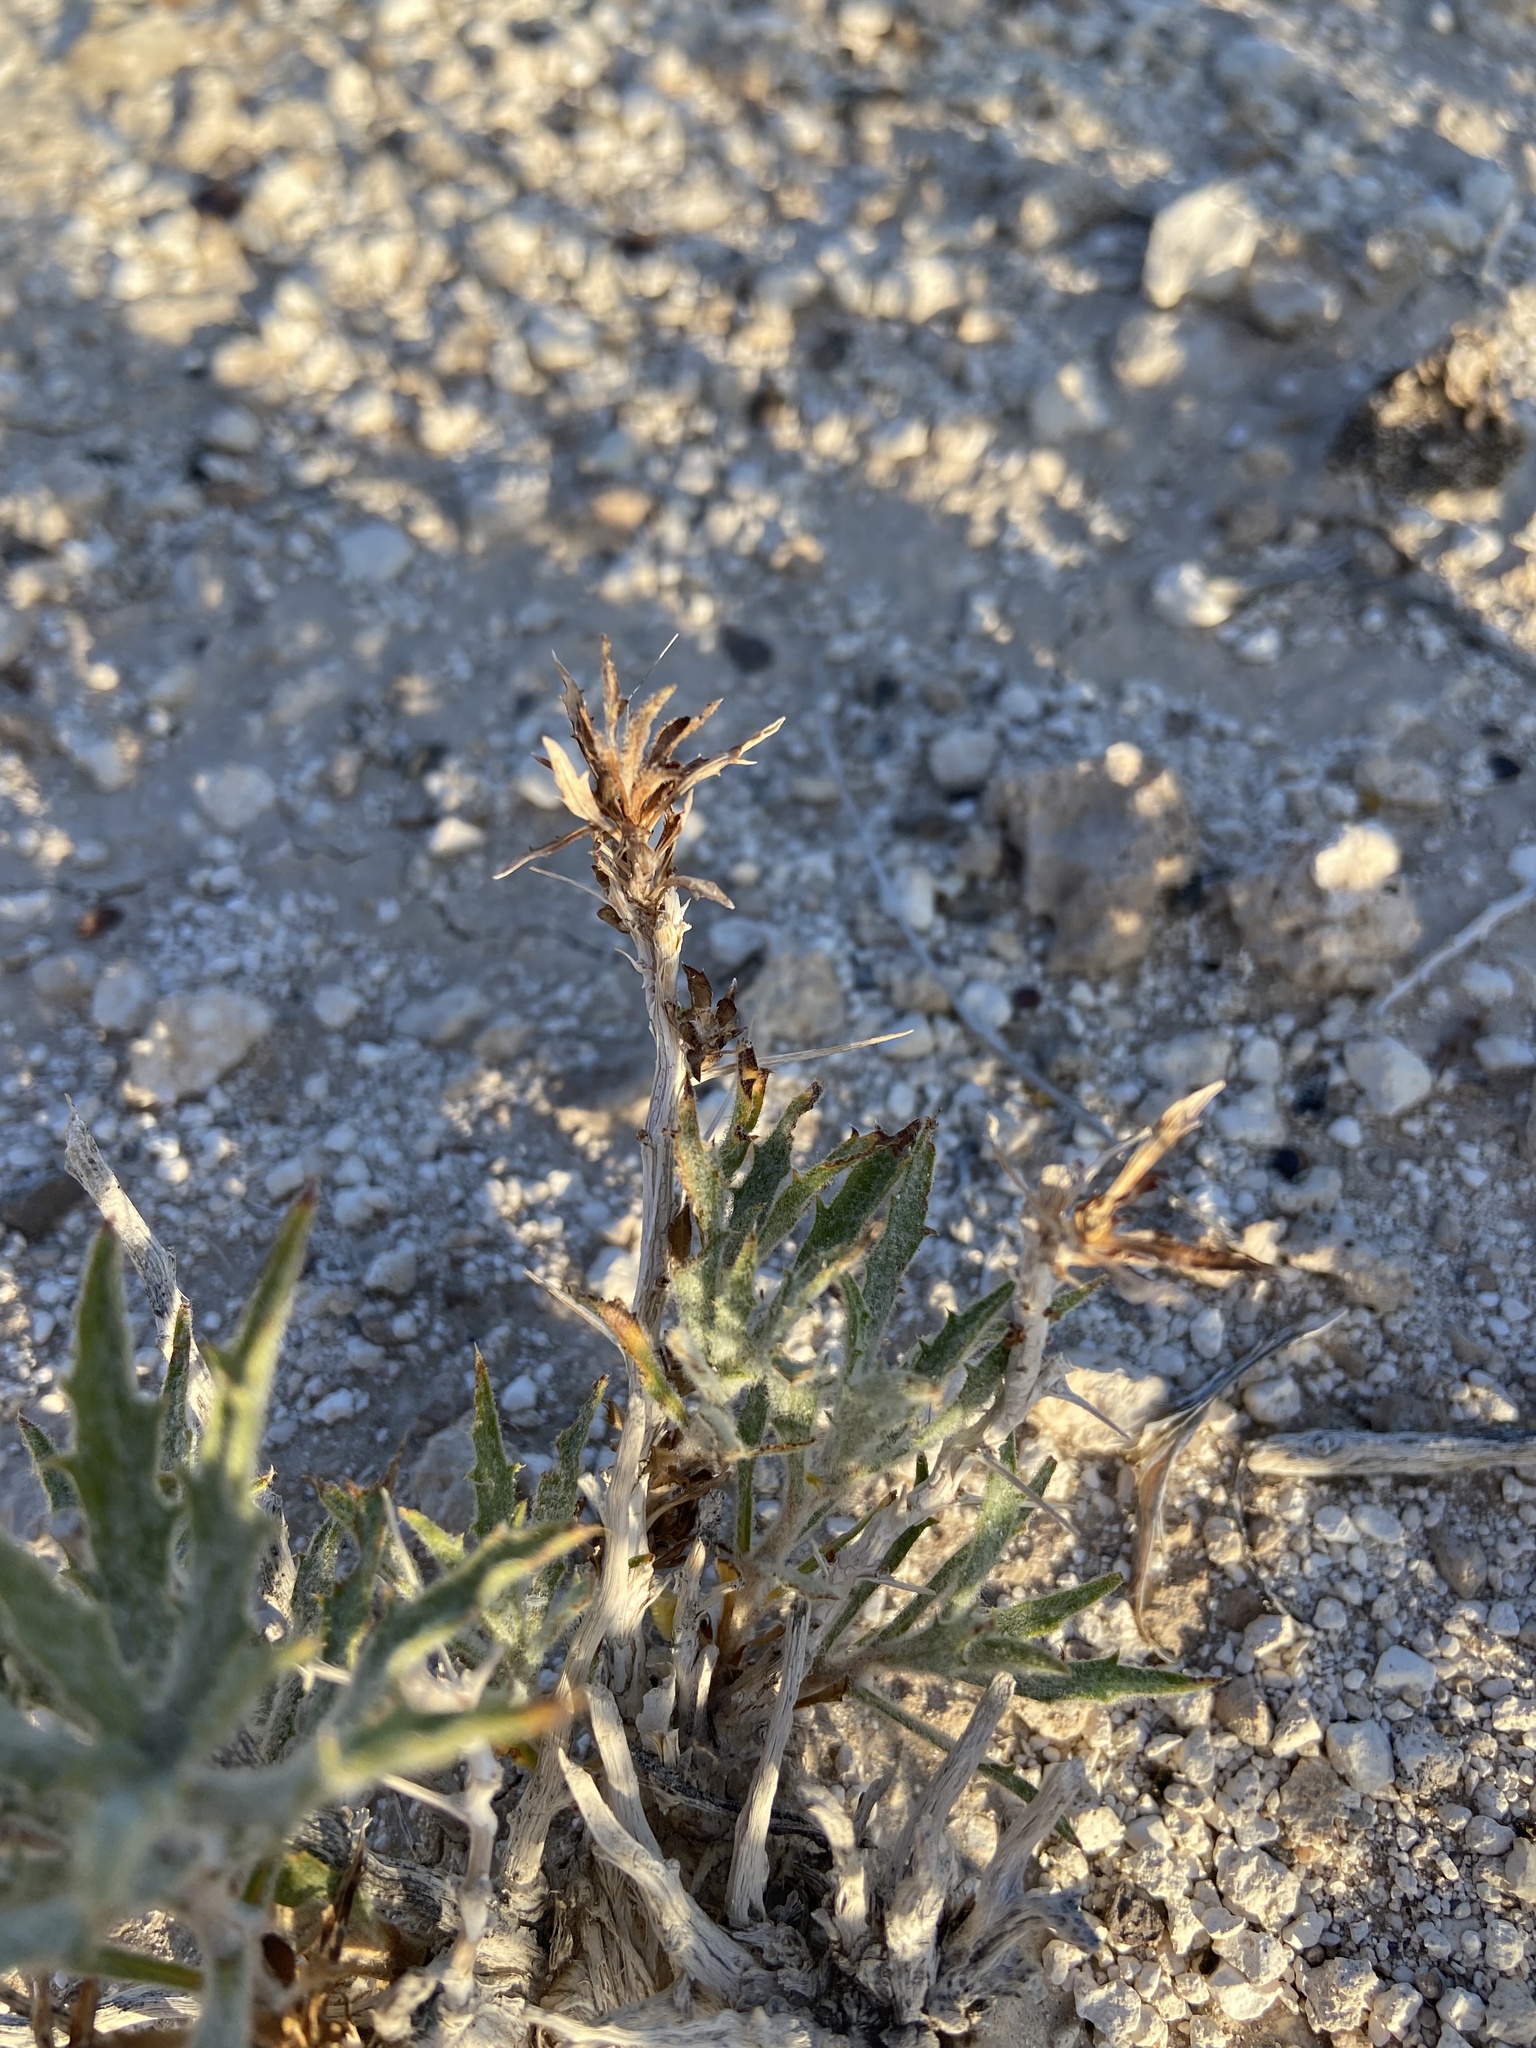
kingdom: Plantae
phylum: Tracheophyta
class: Magnoliopsida
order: Asterales
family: Asteraceae
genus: Xylorhiza
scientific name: Xylorhiza tortifolia
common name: Hurt-leaf woody-aster
